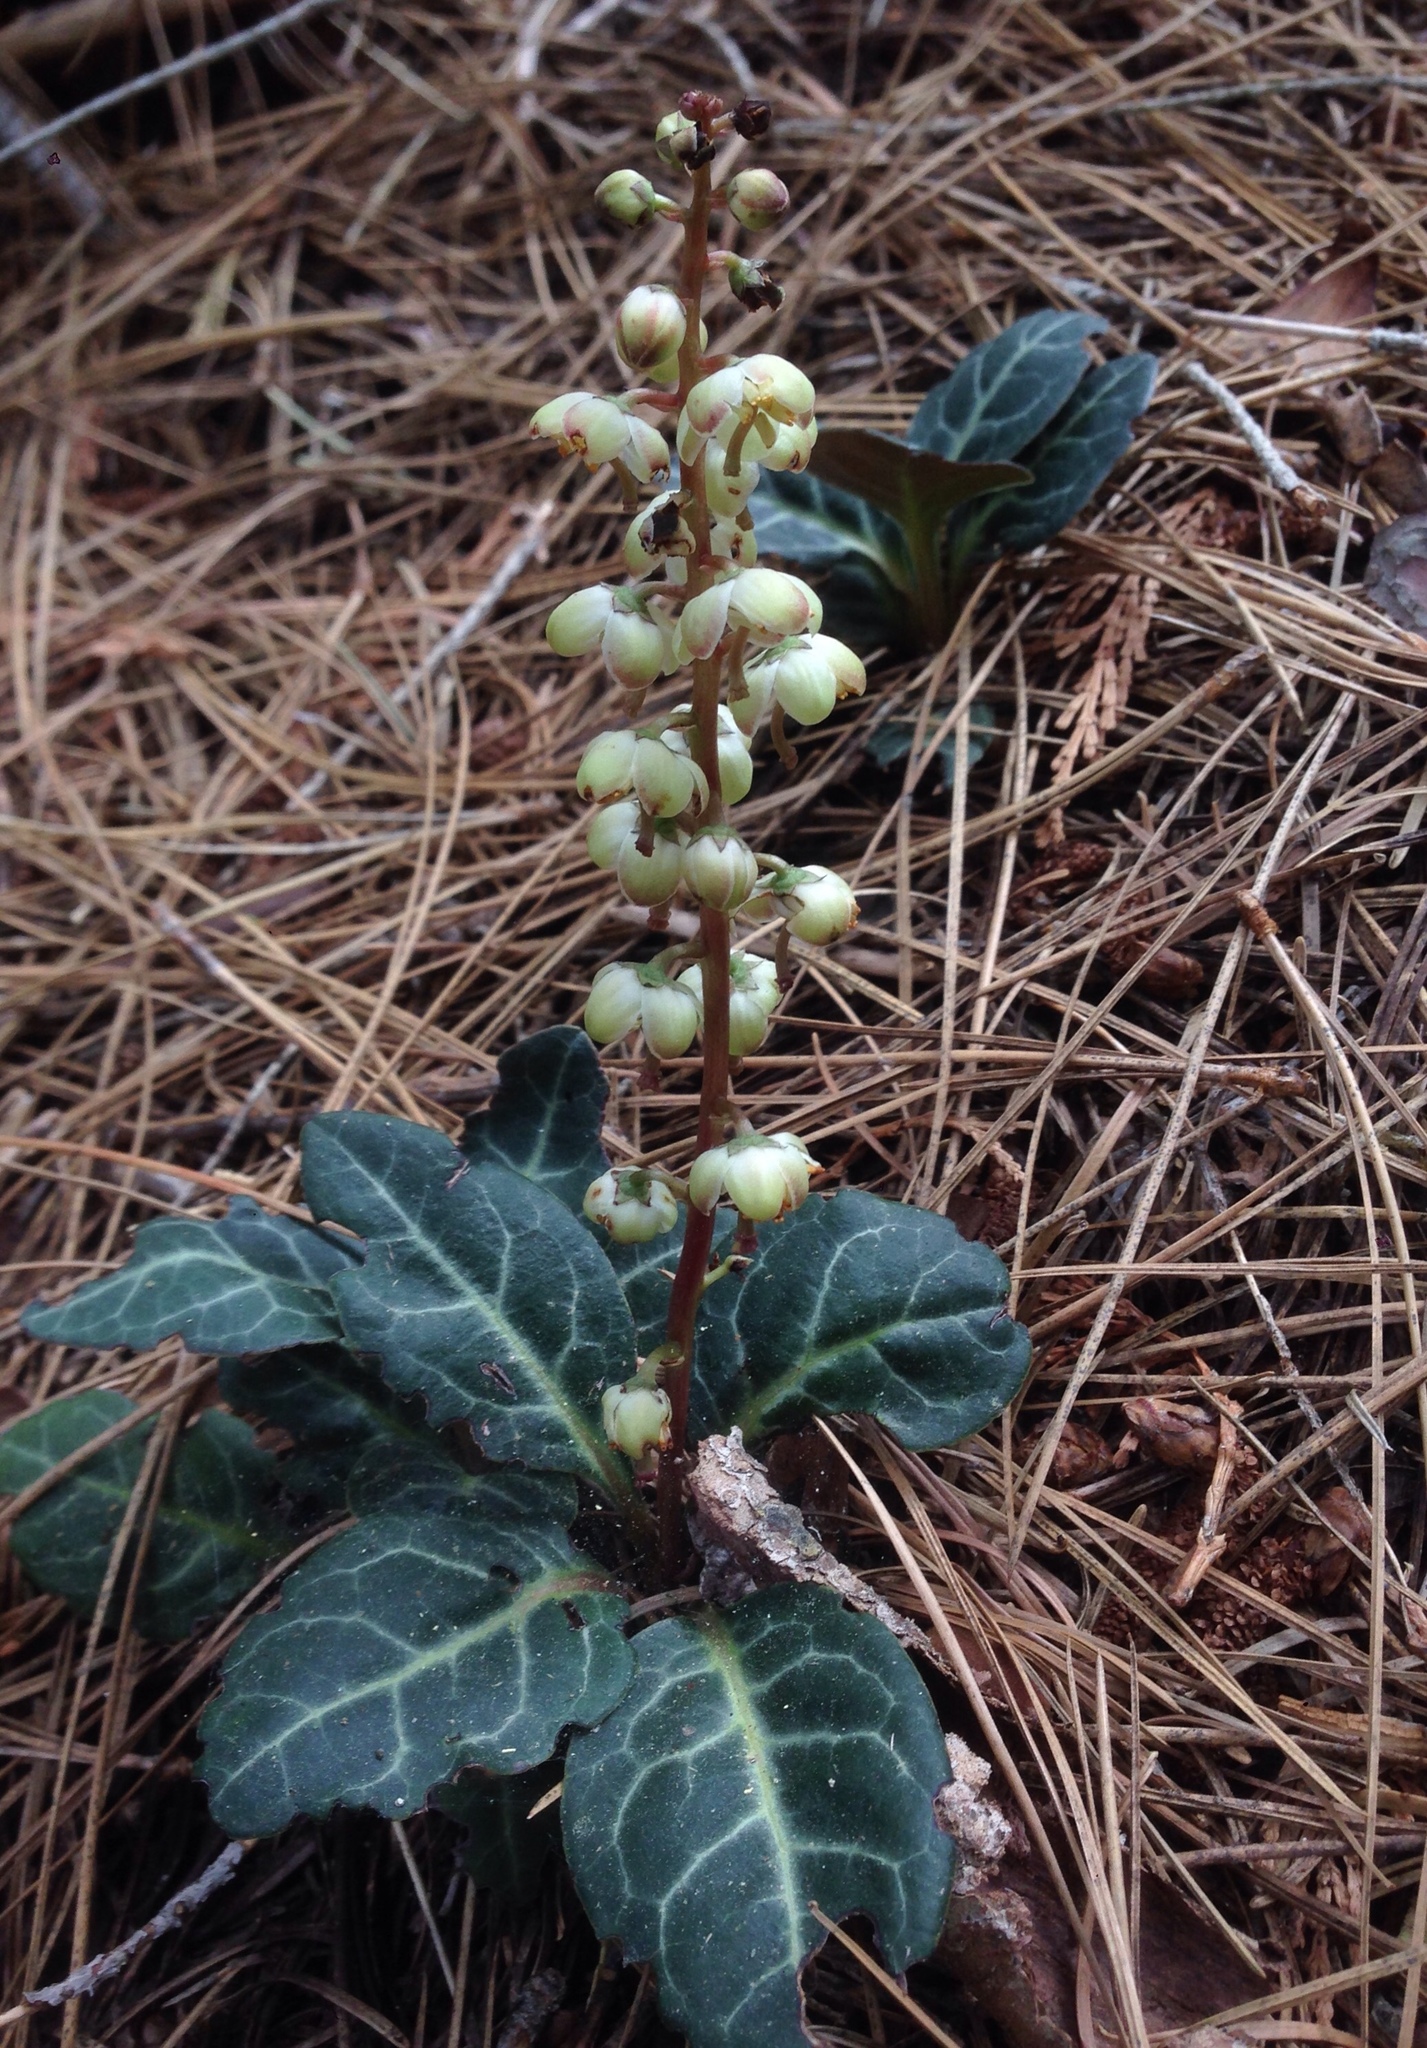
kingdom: Plantae
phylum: Tracheophyta
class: Magnoliopsida
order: Ericales
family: Ericaceae
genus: Pyrola
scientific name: Pyrola picta
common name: White-vein wintergreen
